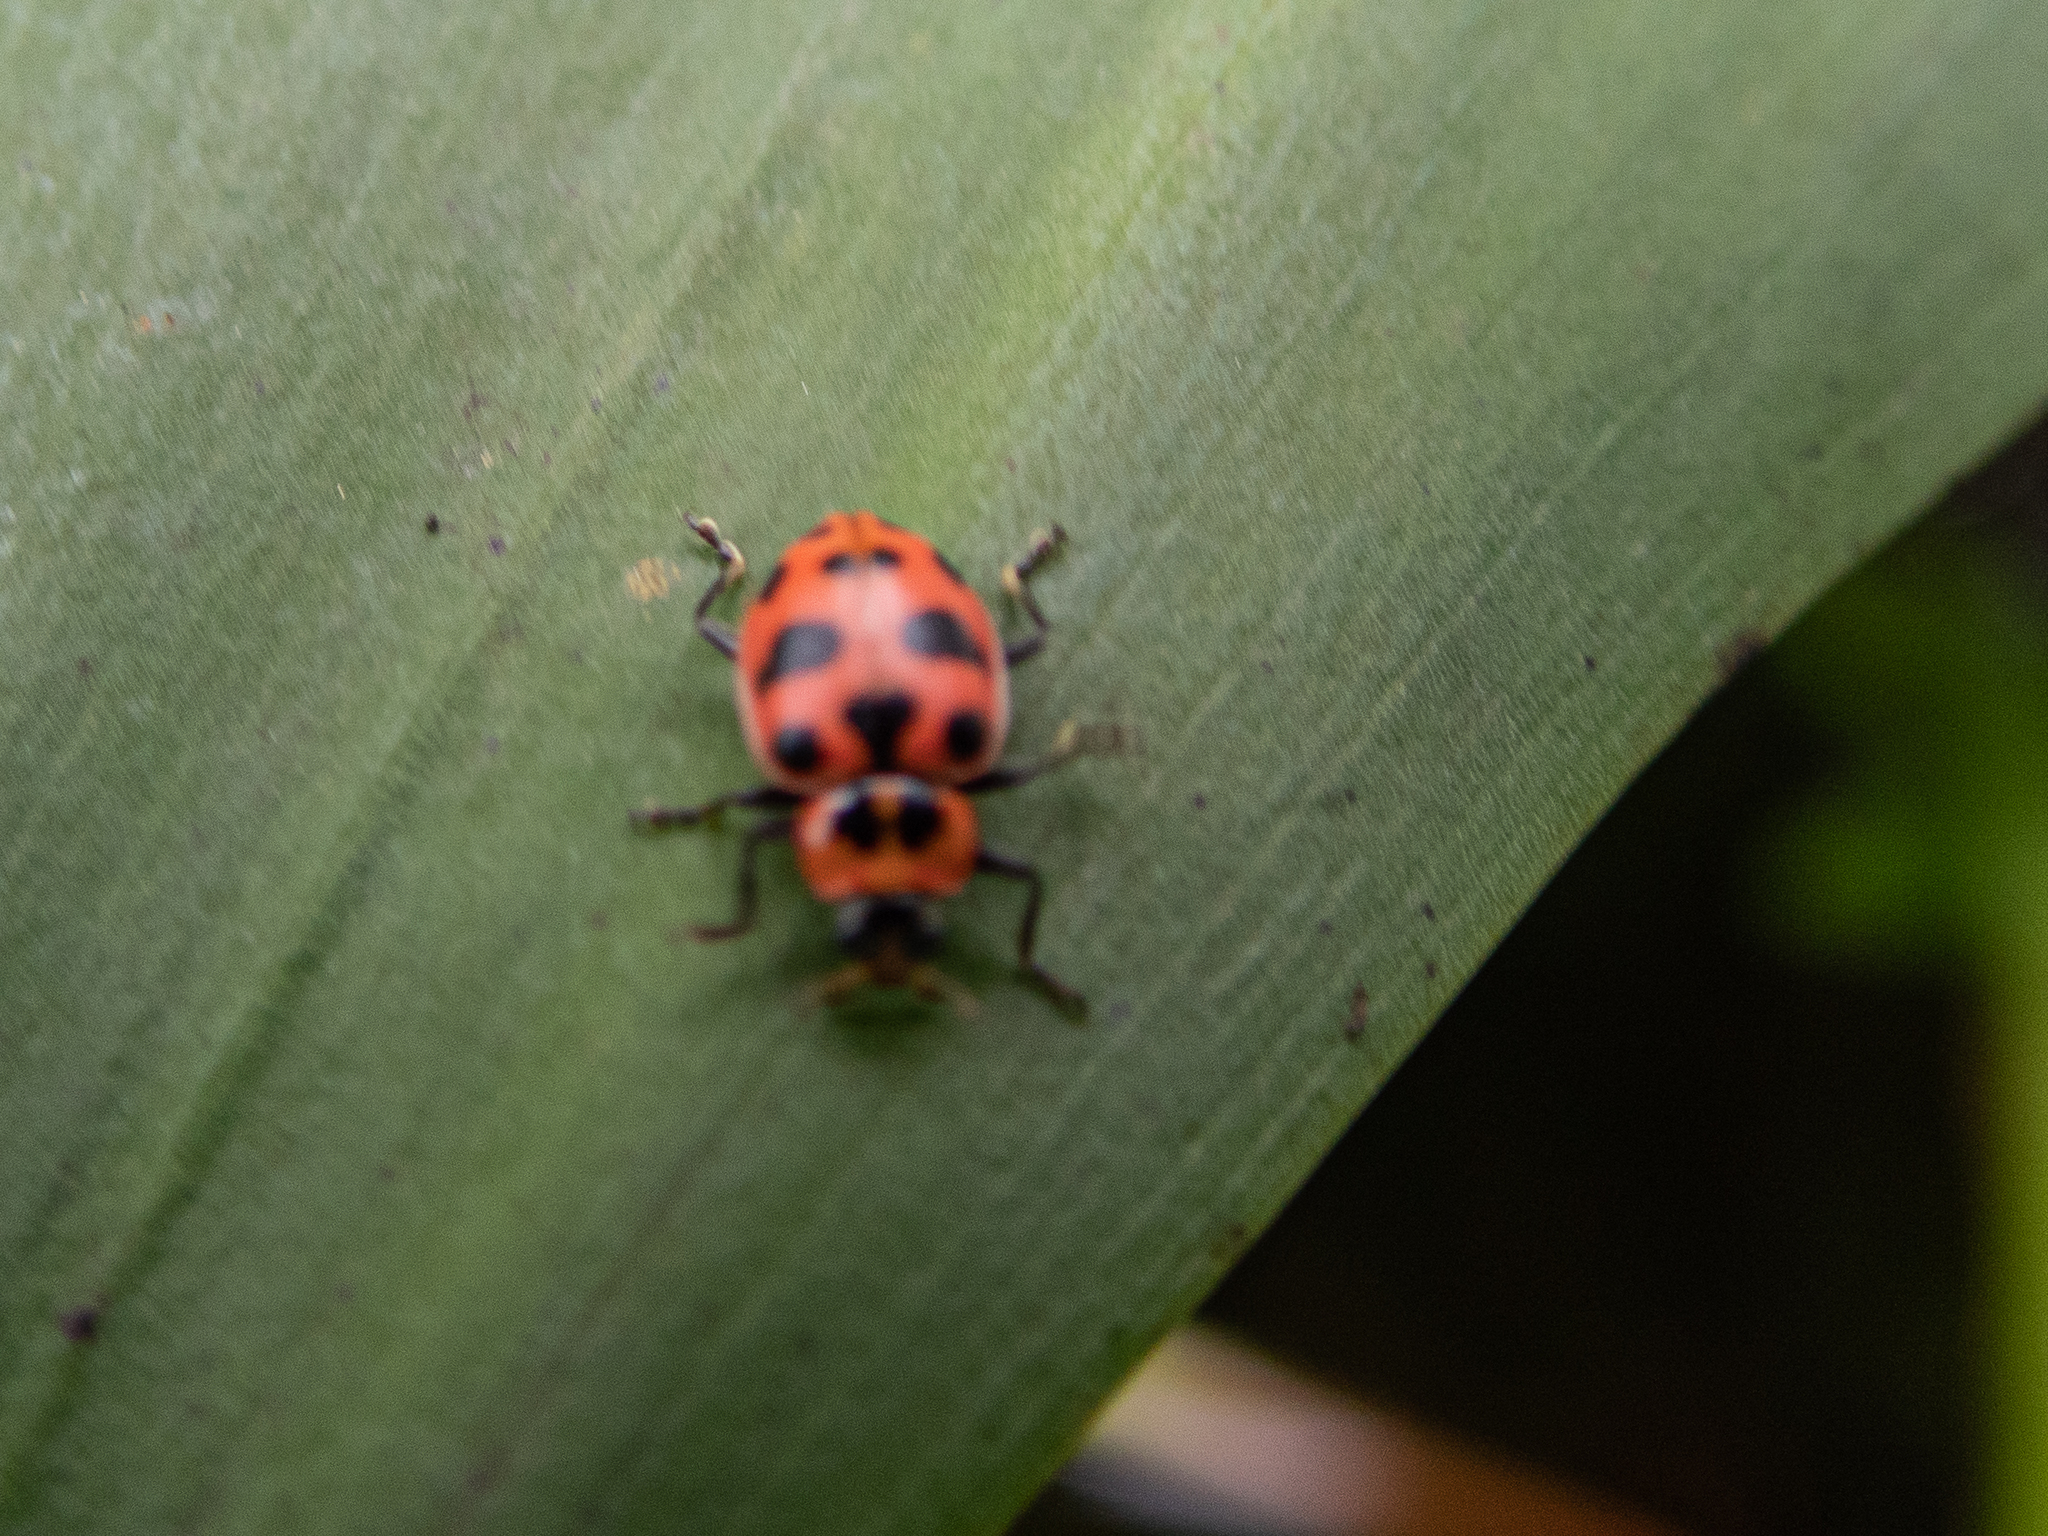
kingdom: Animalia
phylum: Arthropoda
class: Insecta
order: Coleoptera
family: Coccinellidae
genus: Coleomegilla
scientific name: Coleomegilla maculata
